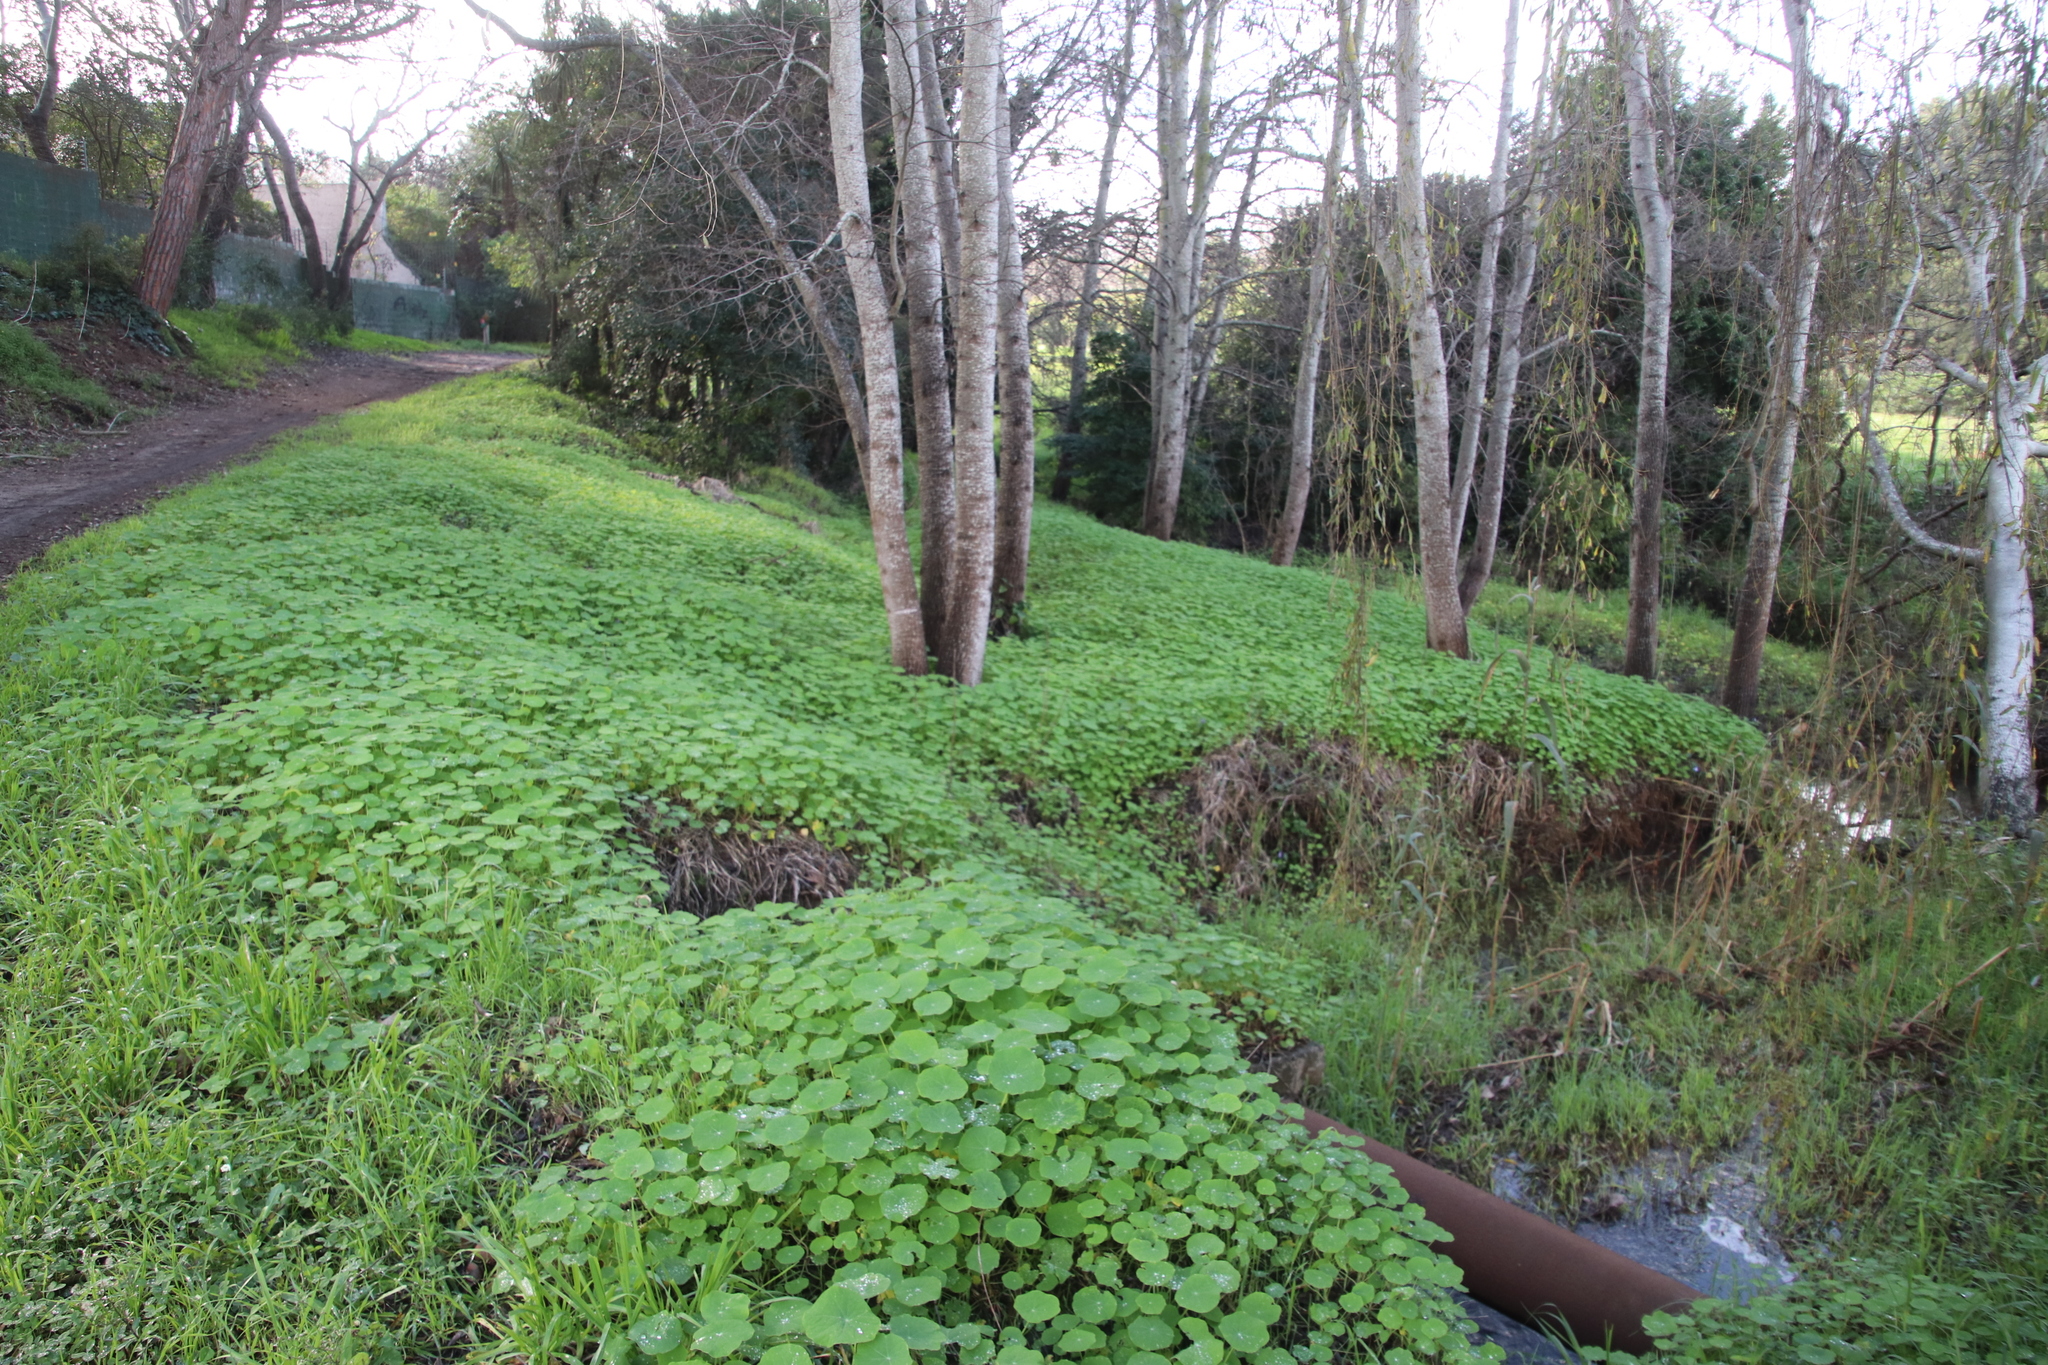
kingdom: Plantae
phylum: Tracheophyta
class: Magnoliopsida
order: Brassicales
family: Tropaeolaceae
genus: Tropaeolum
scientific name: Tropaeolum majus
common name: Nasturtium
